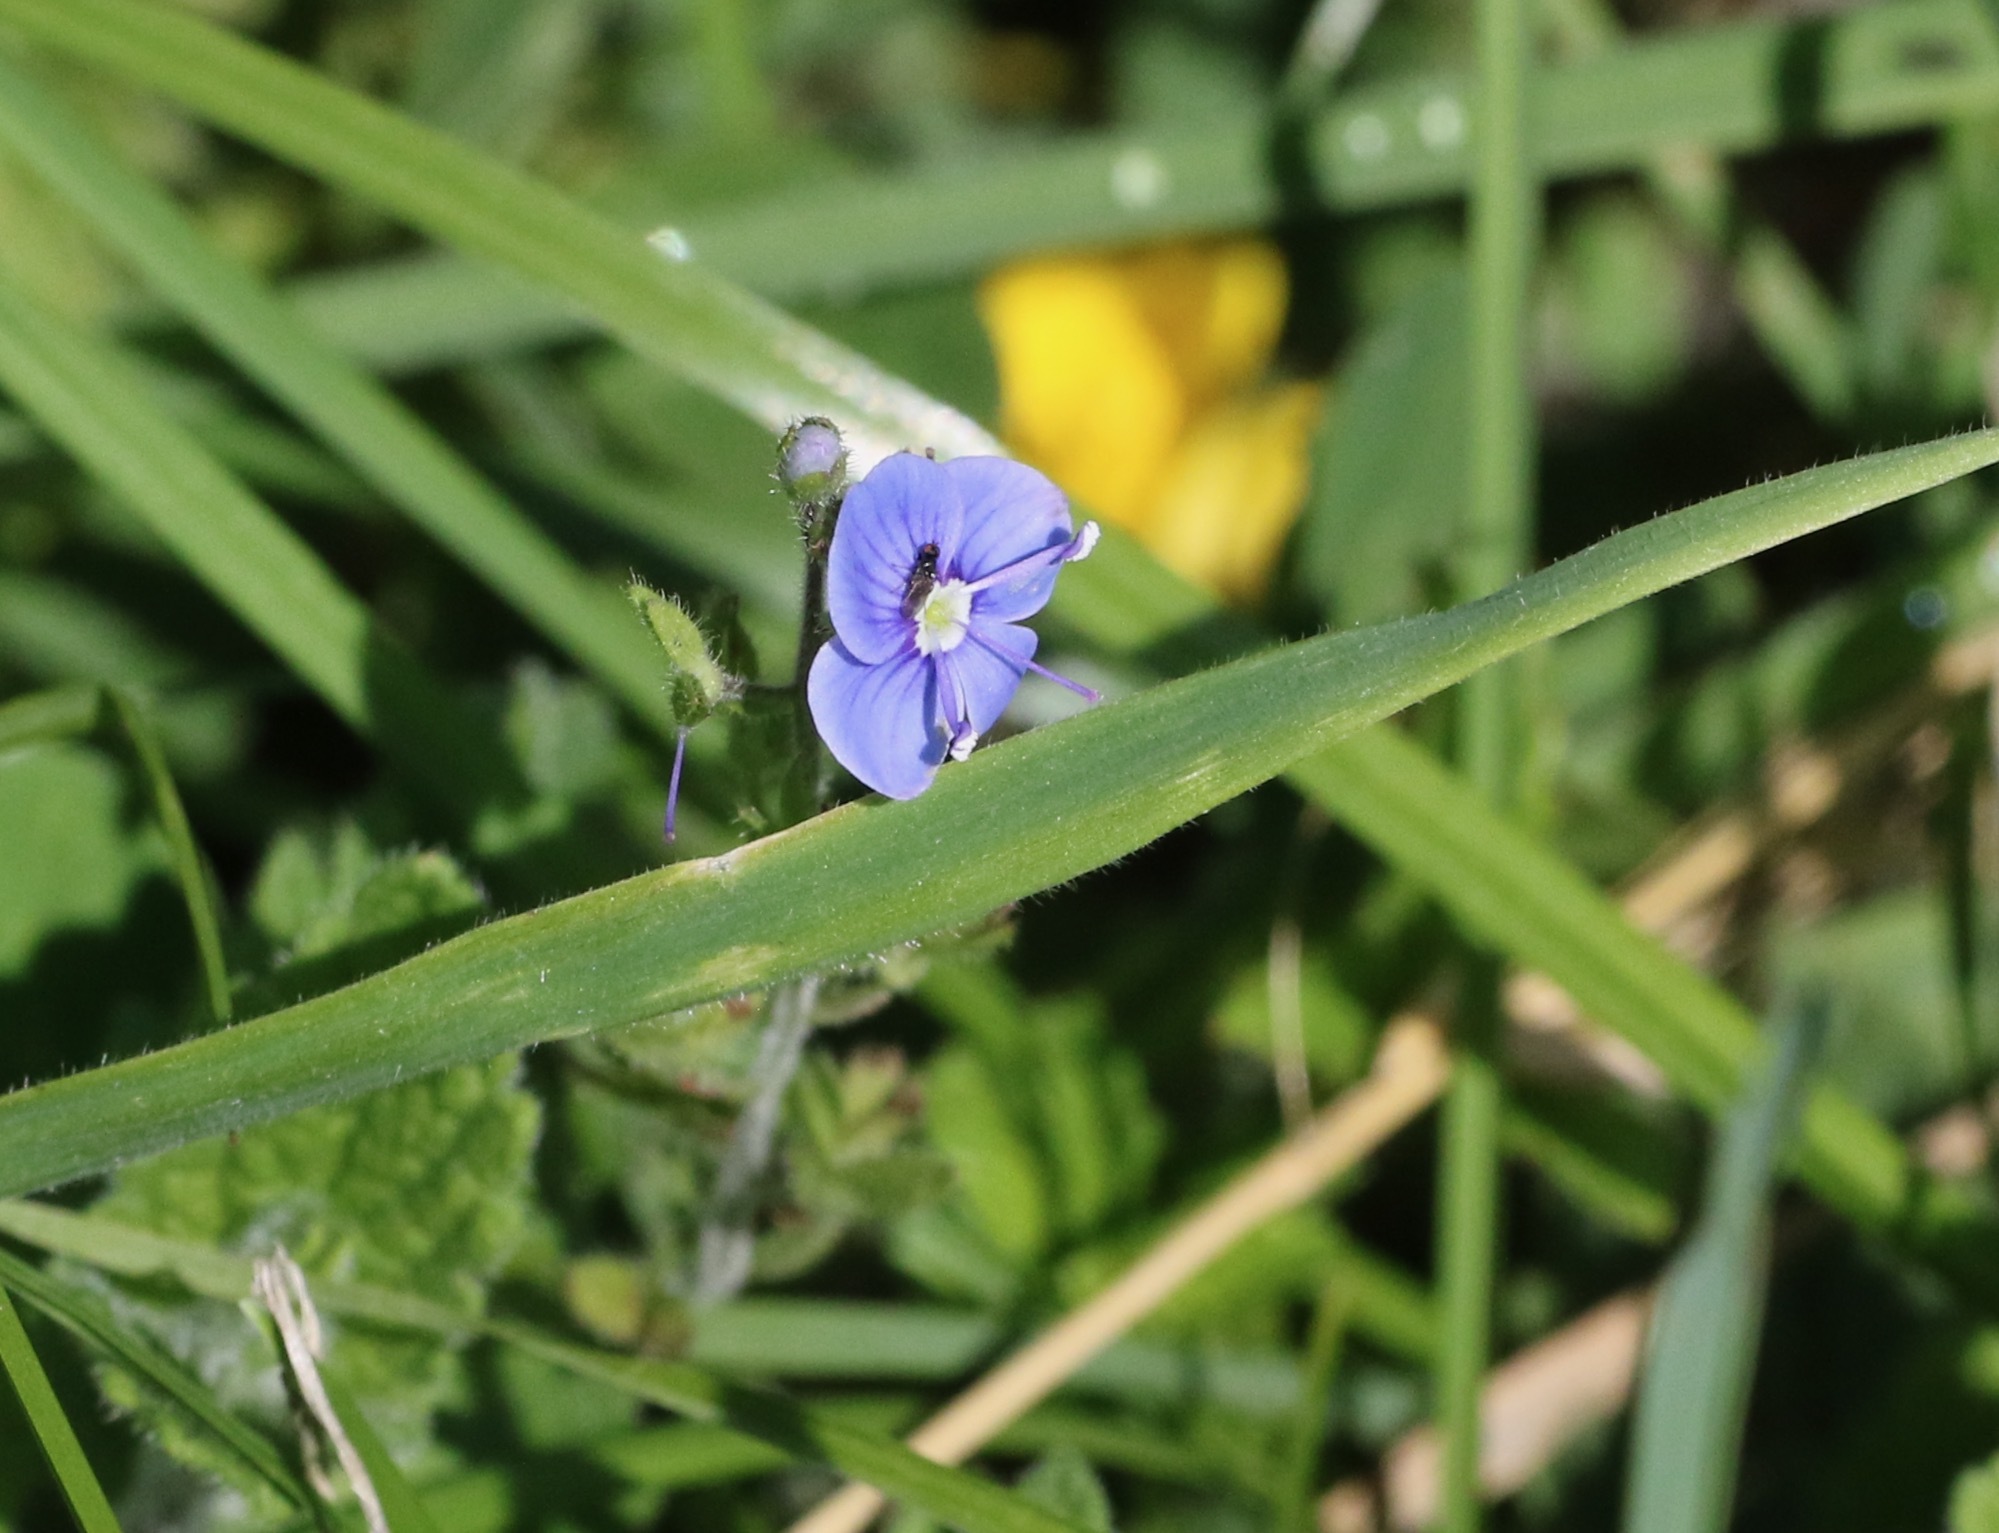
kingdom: Plantae
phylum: Tracheophyta
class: Magnoliopsida
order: Lamiales
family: Plantaginaceae
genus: Veronica
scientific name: Veronica chamaedrys
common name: Germander speedwell
